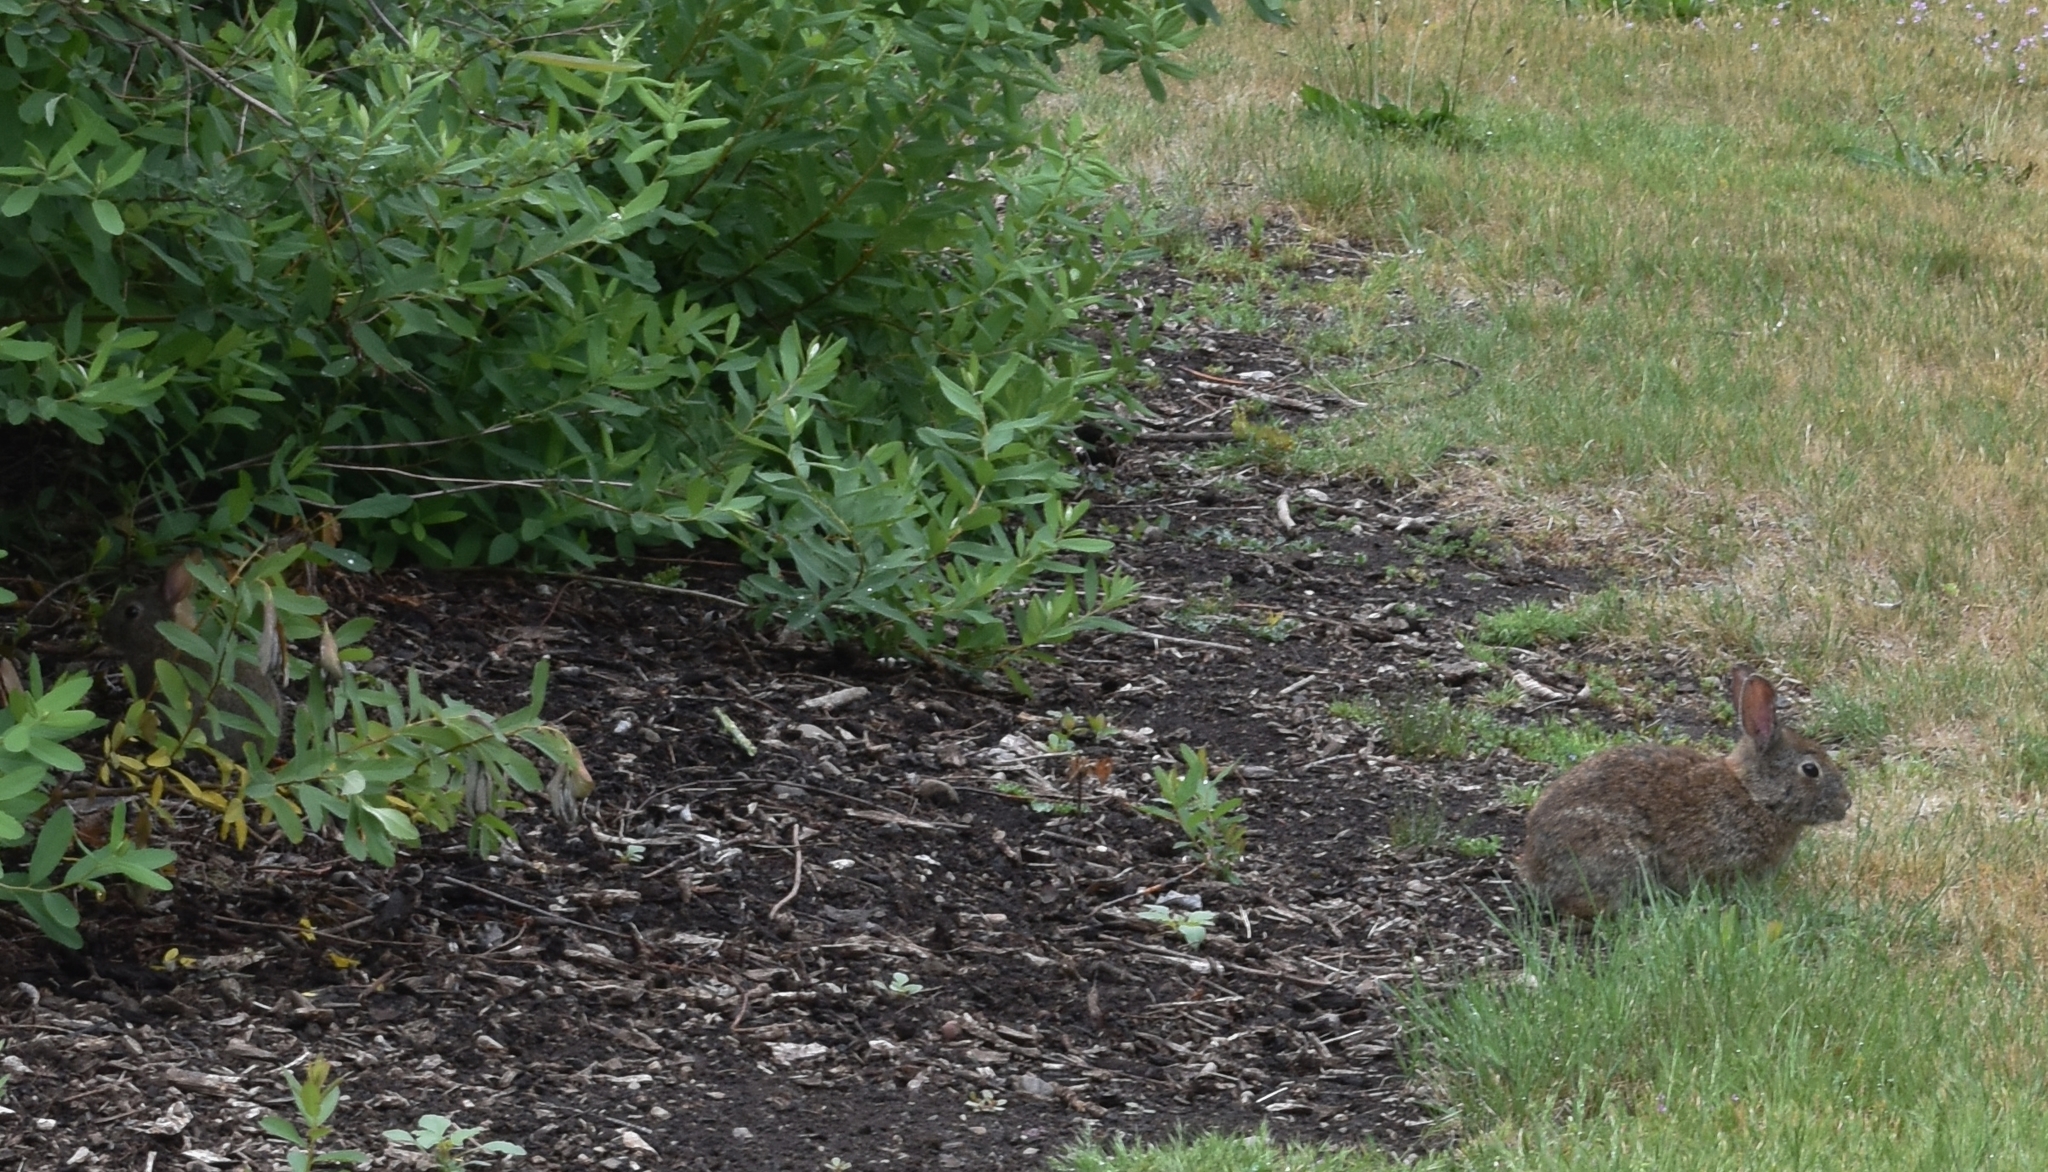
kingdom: Animalia
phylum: Chordata
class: Mammalia
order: Lagomorpha
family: Leporidae
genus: Sylvilagus
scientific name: Sylvilagus
